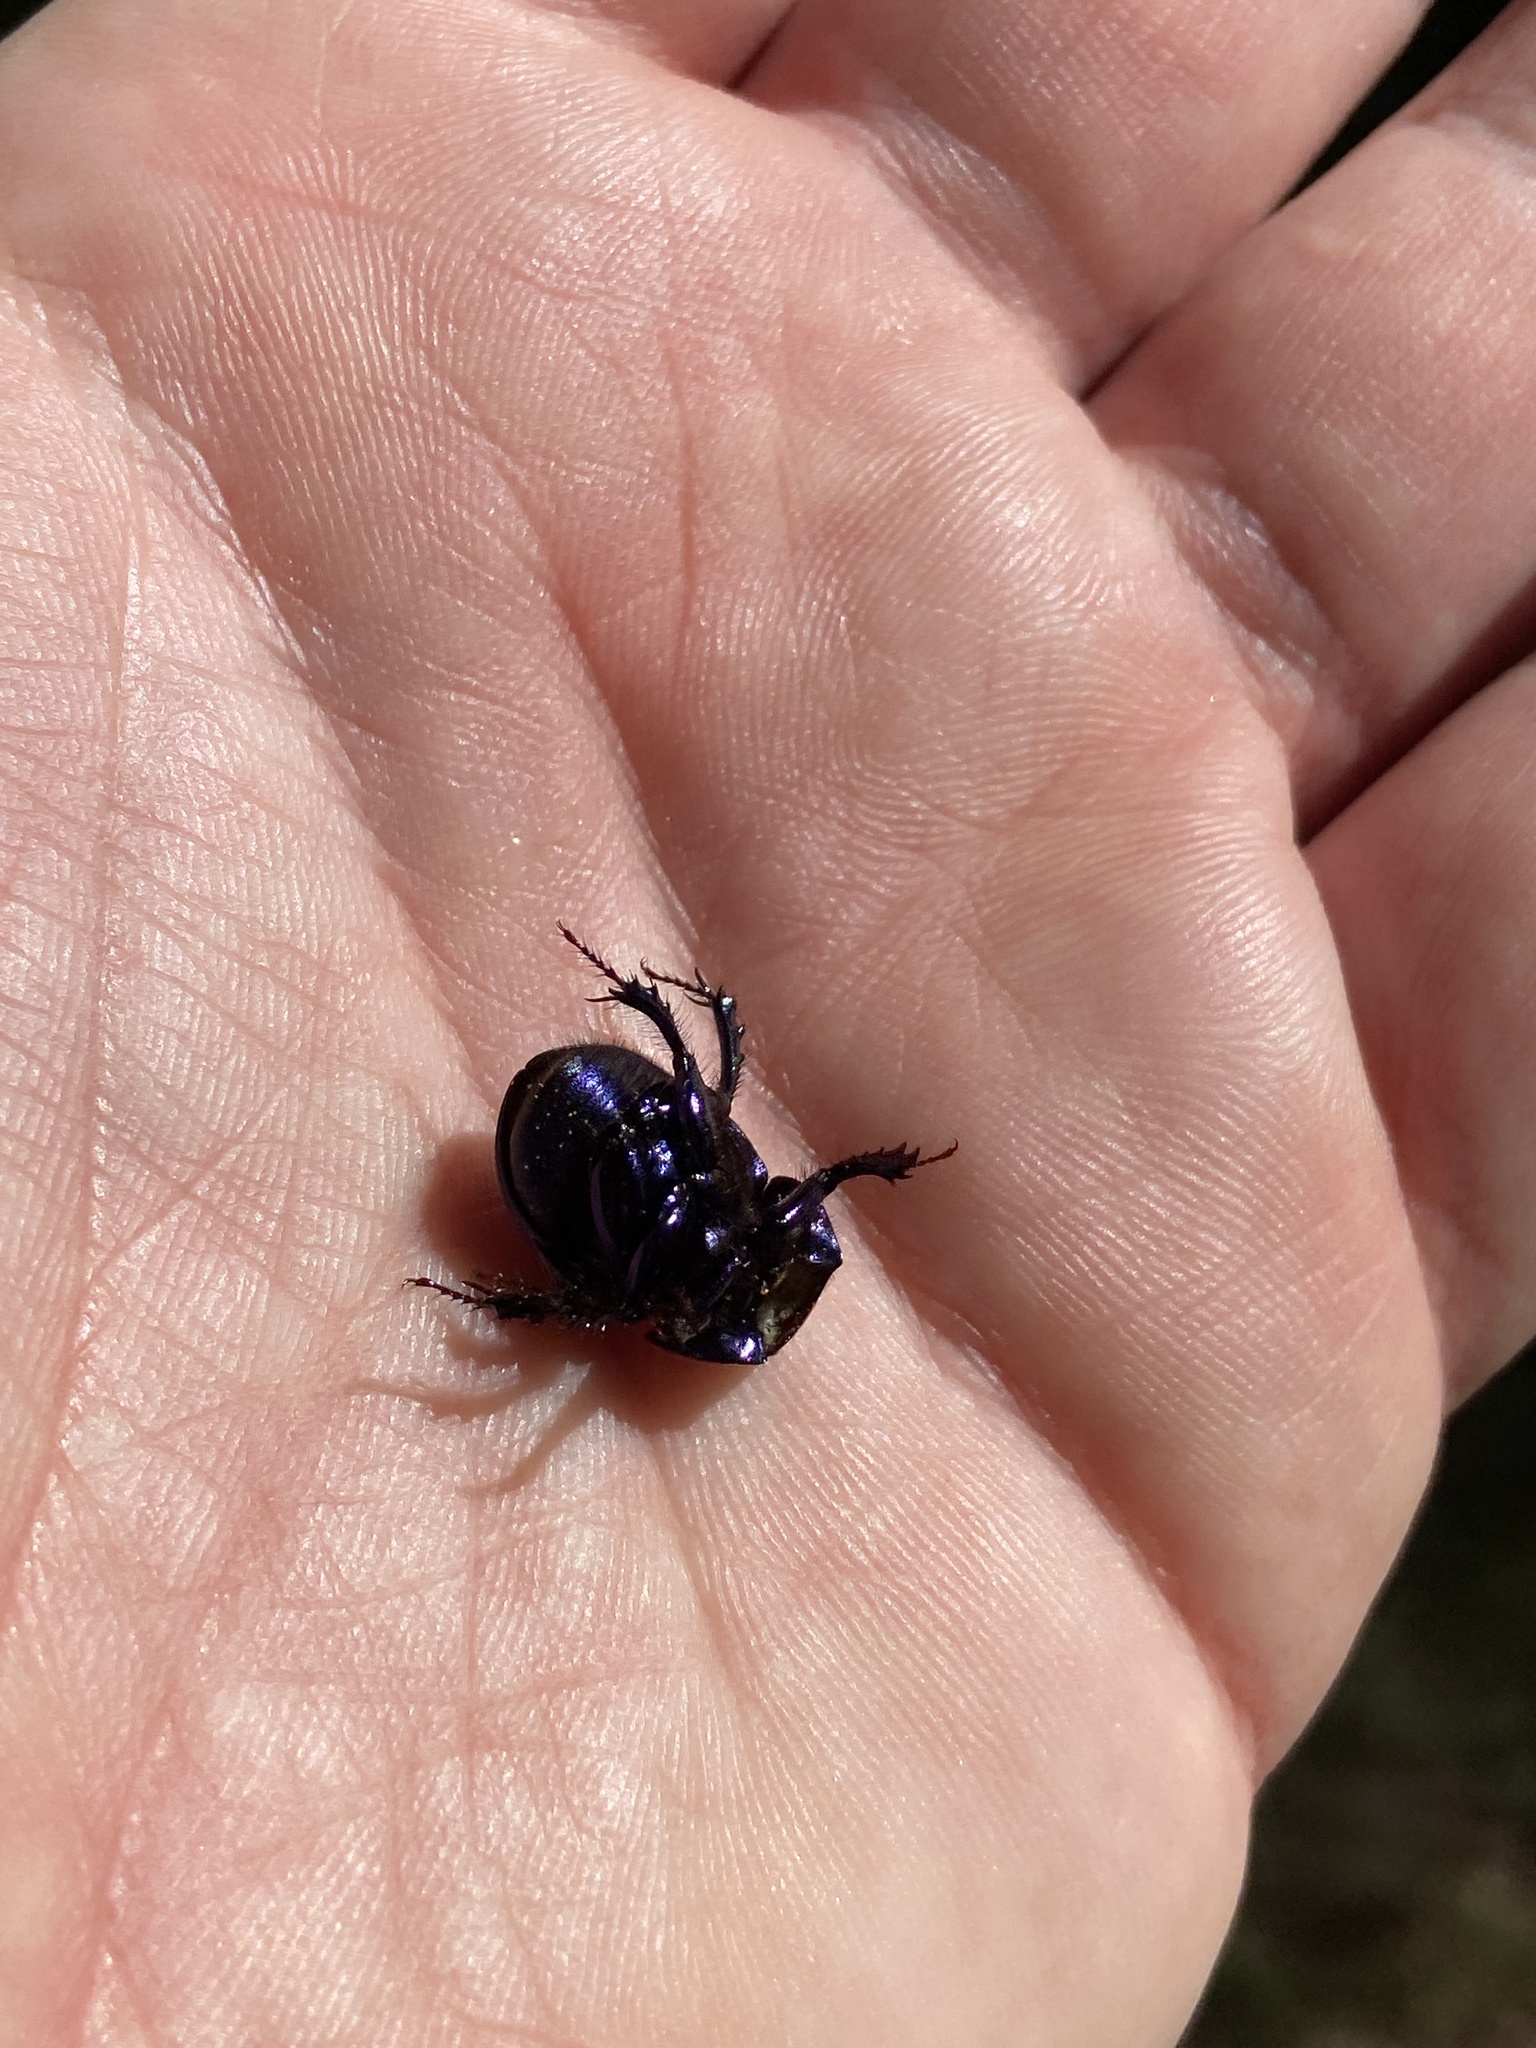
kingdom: Animalia
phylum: Arthropoda
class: Insecta
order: Coleoptera
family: Geotrupidae
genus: Anoplotrupes
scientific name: Anoplotrupes stercorosus
